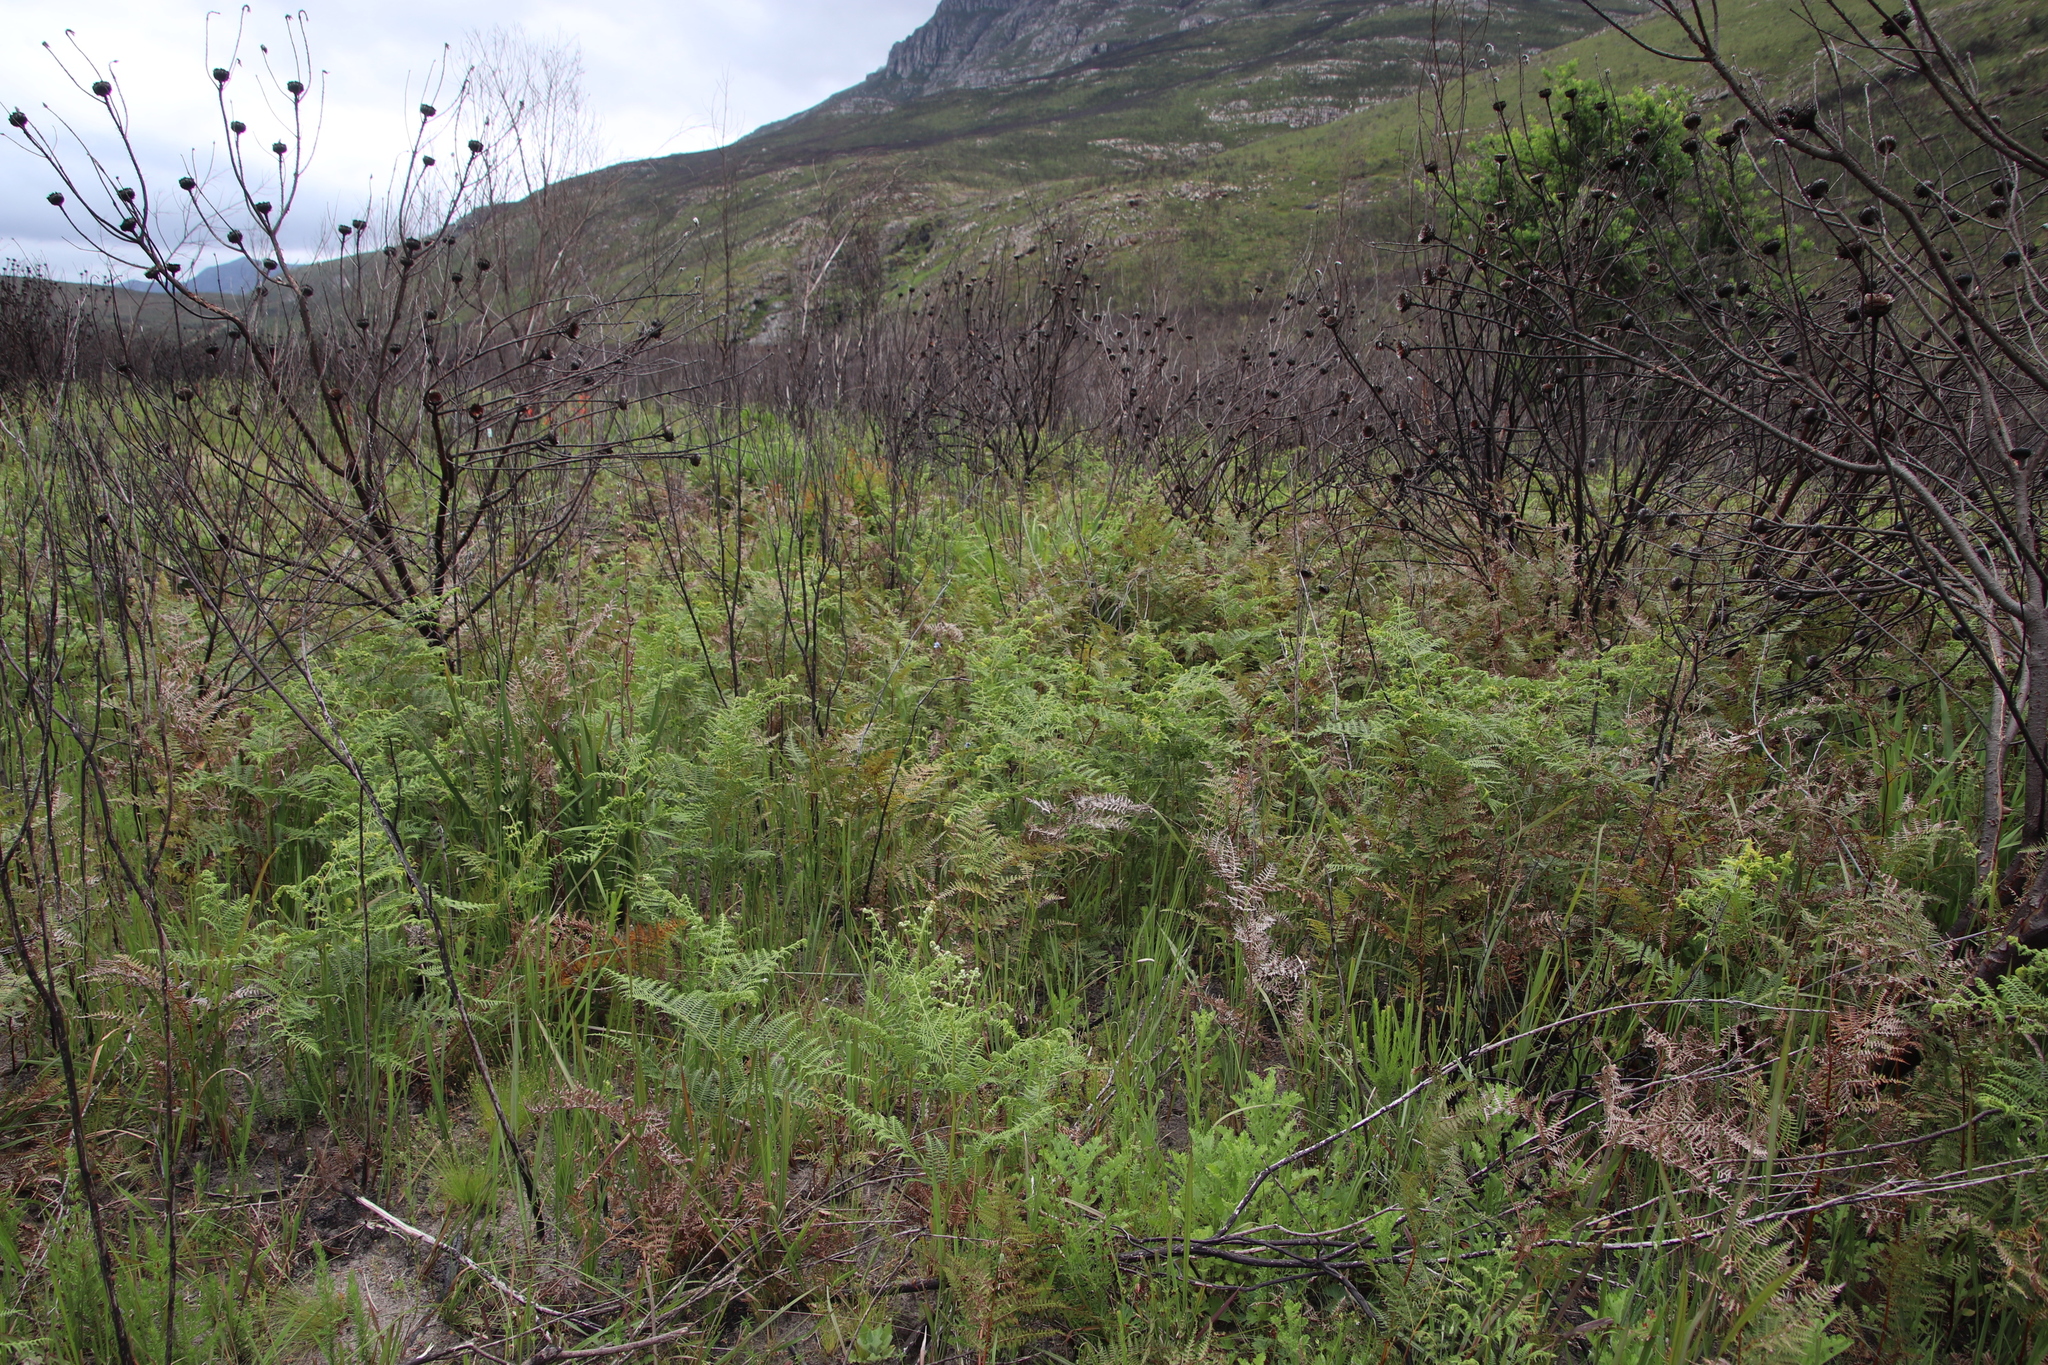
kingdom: Plantae
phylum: Tracheophyta
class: Polypodiopsida
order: Polypodiales
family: Dennstaedtiaceae
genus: Pteridium
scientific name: Pteridium aquilinum
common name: Bracken
